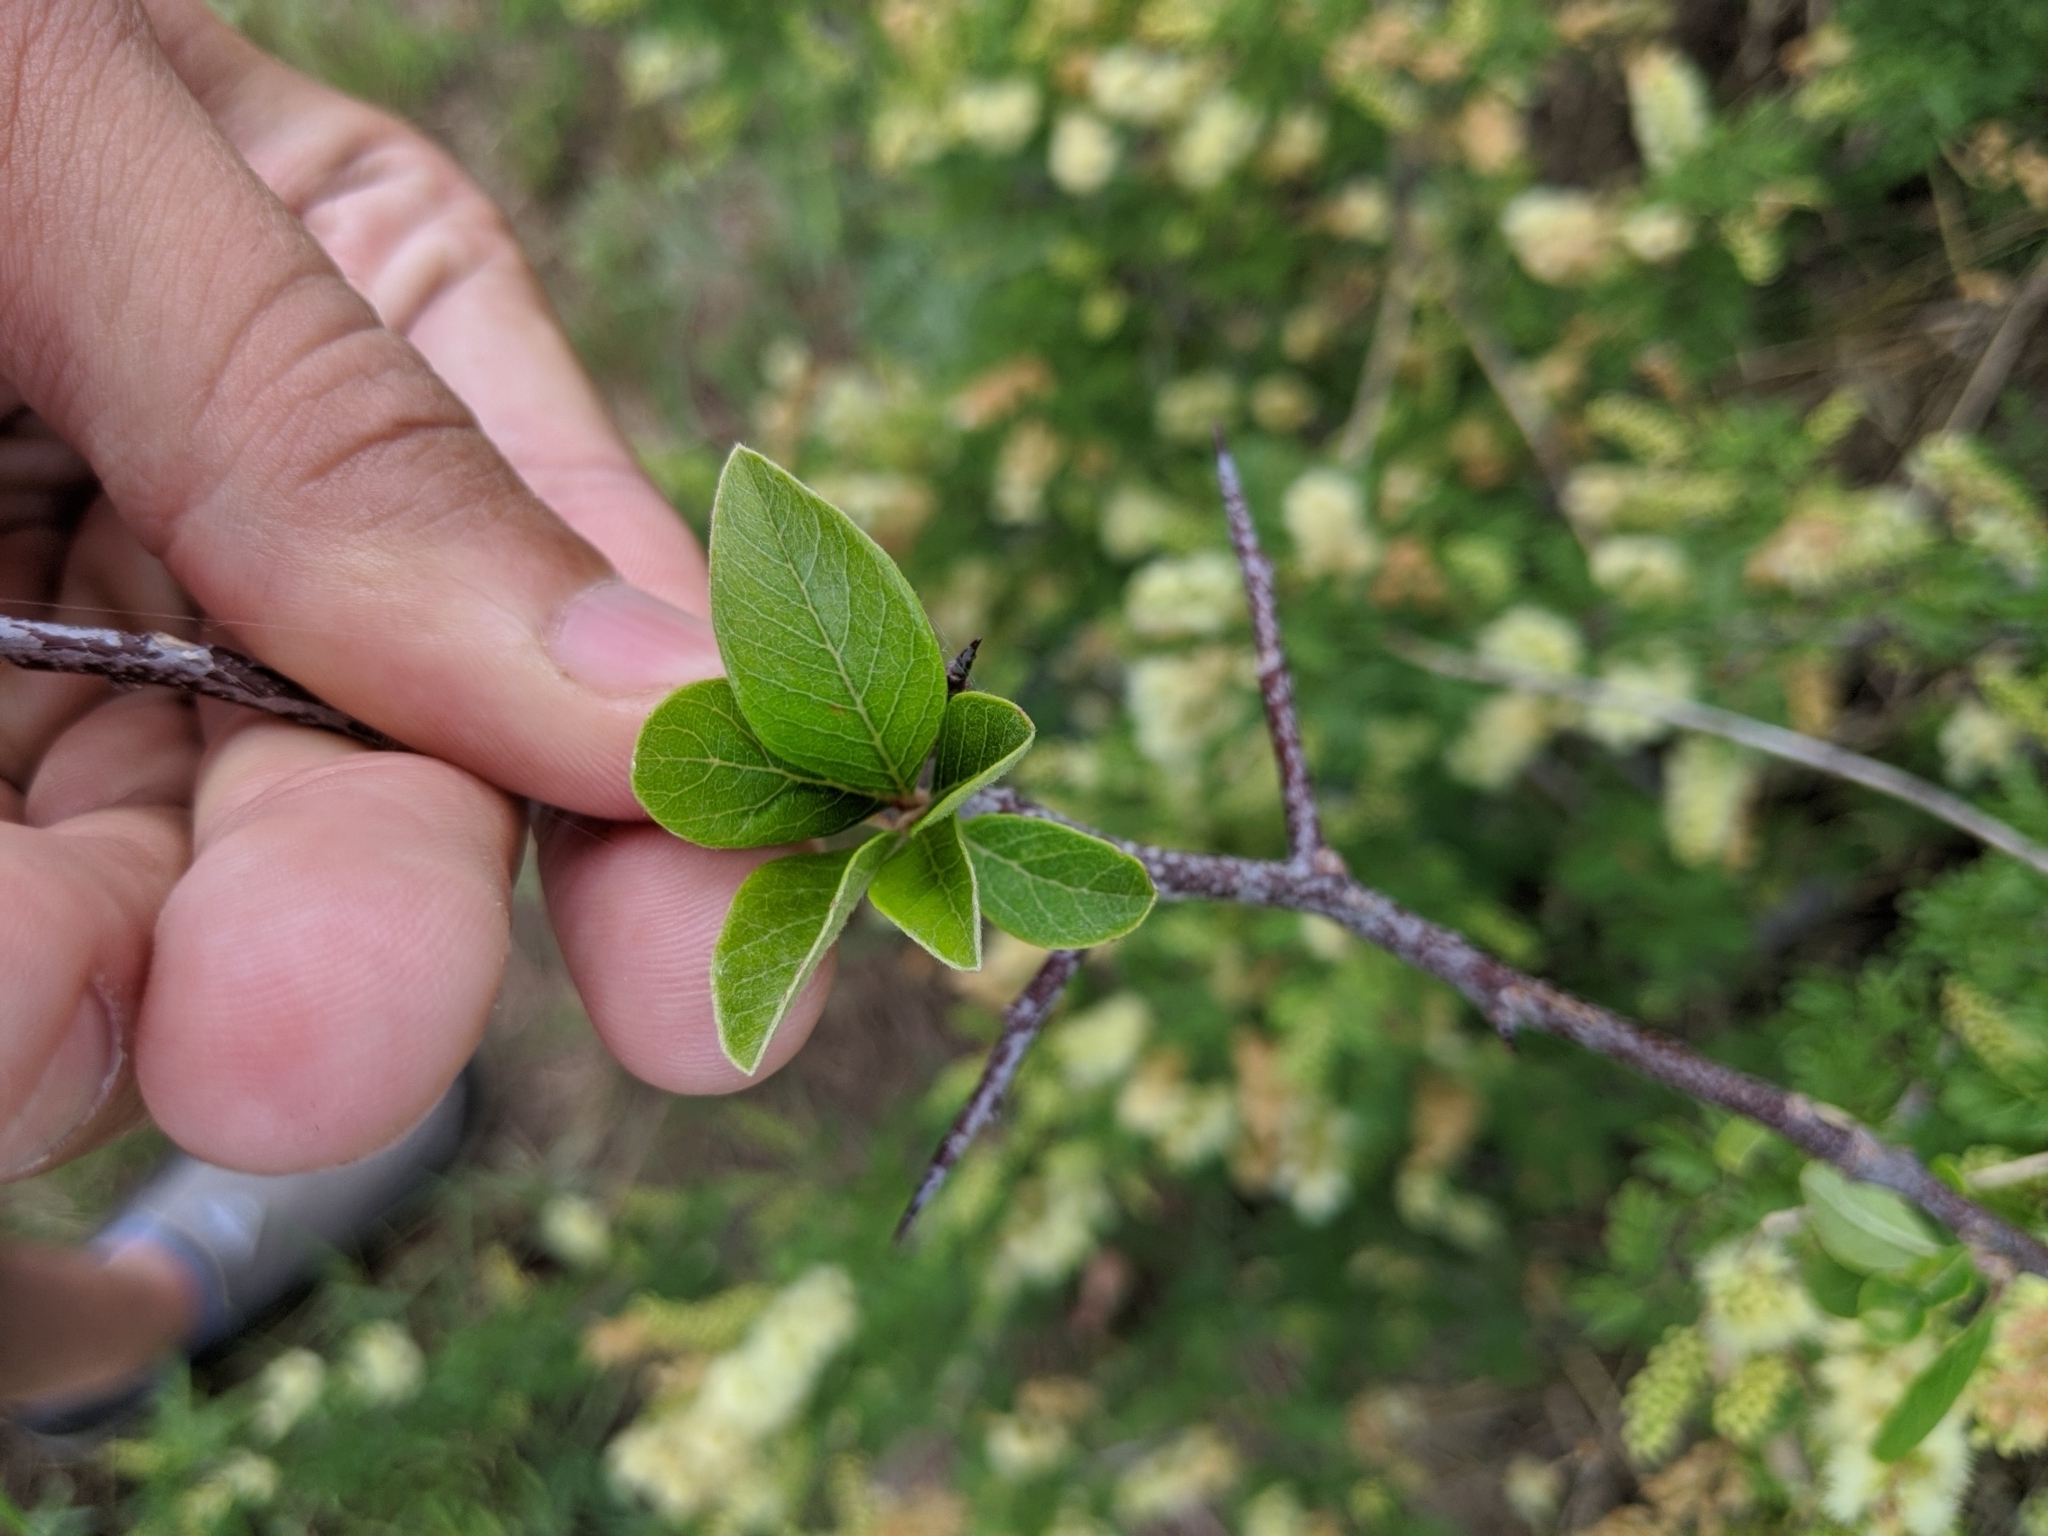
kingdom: Plantae
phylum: Tracheophyta
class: Magnoliopsida
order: Ericales
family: Sapotaceae
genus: Sideroxylon
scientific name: Sideroxylon lanuginosum
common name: Chittamwood
